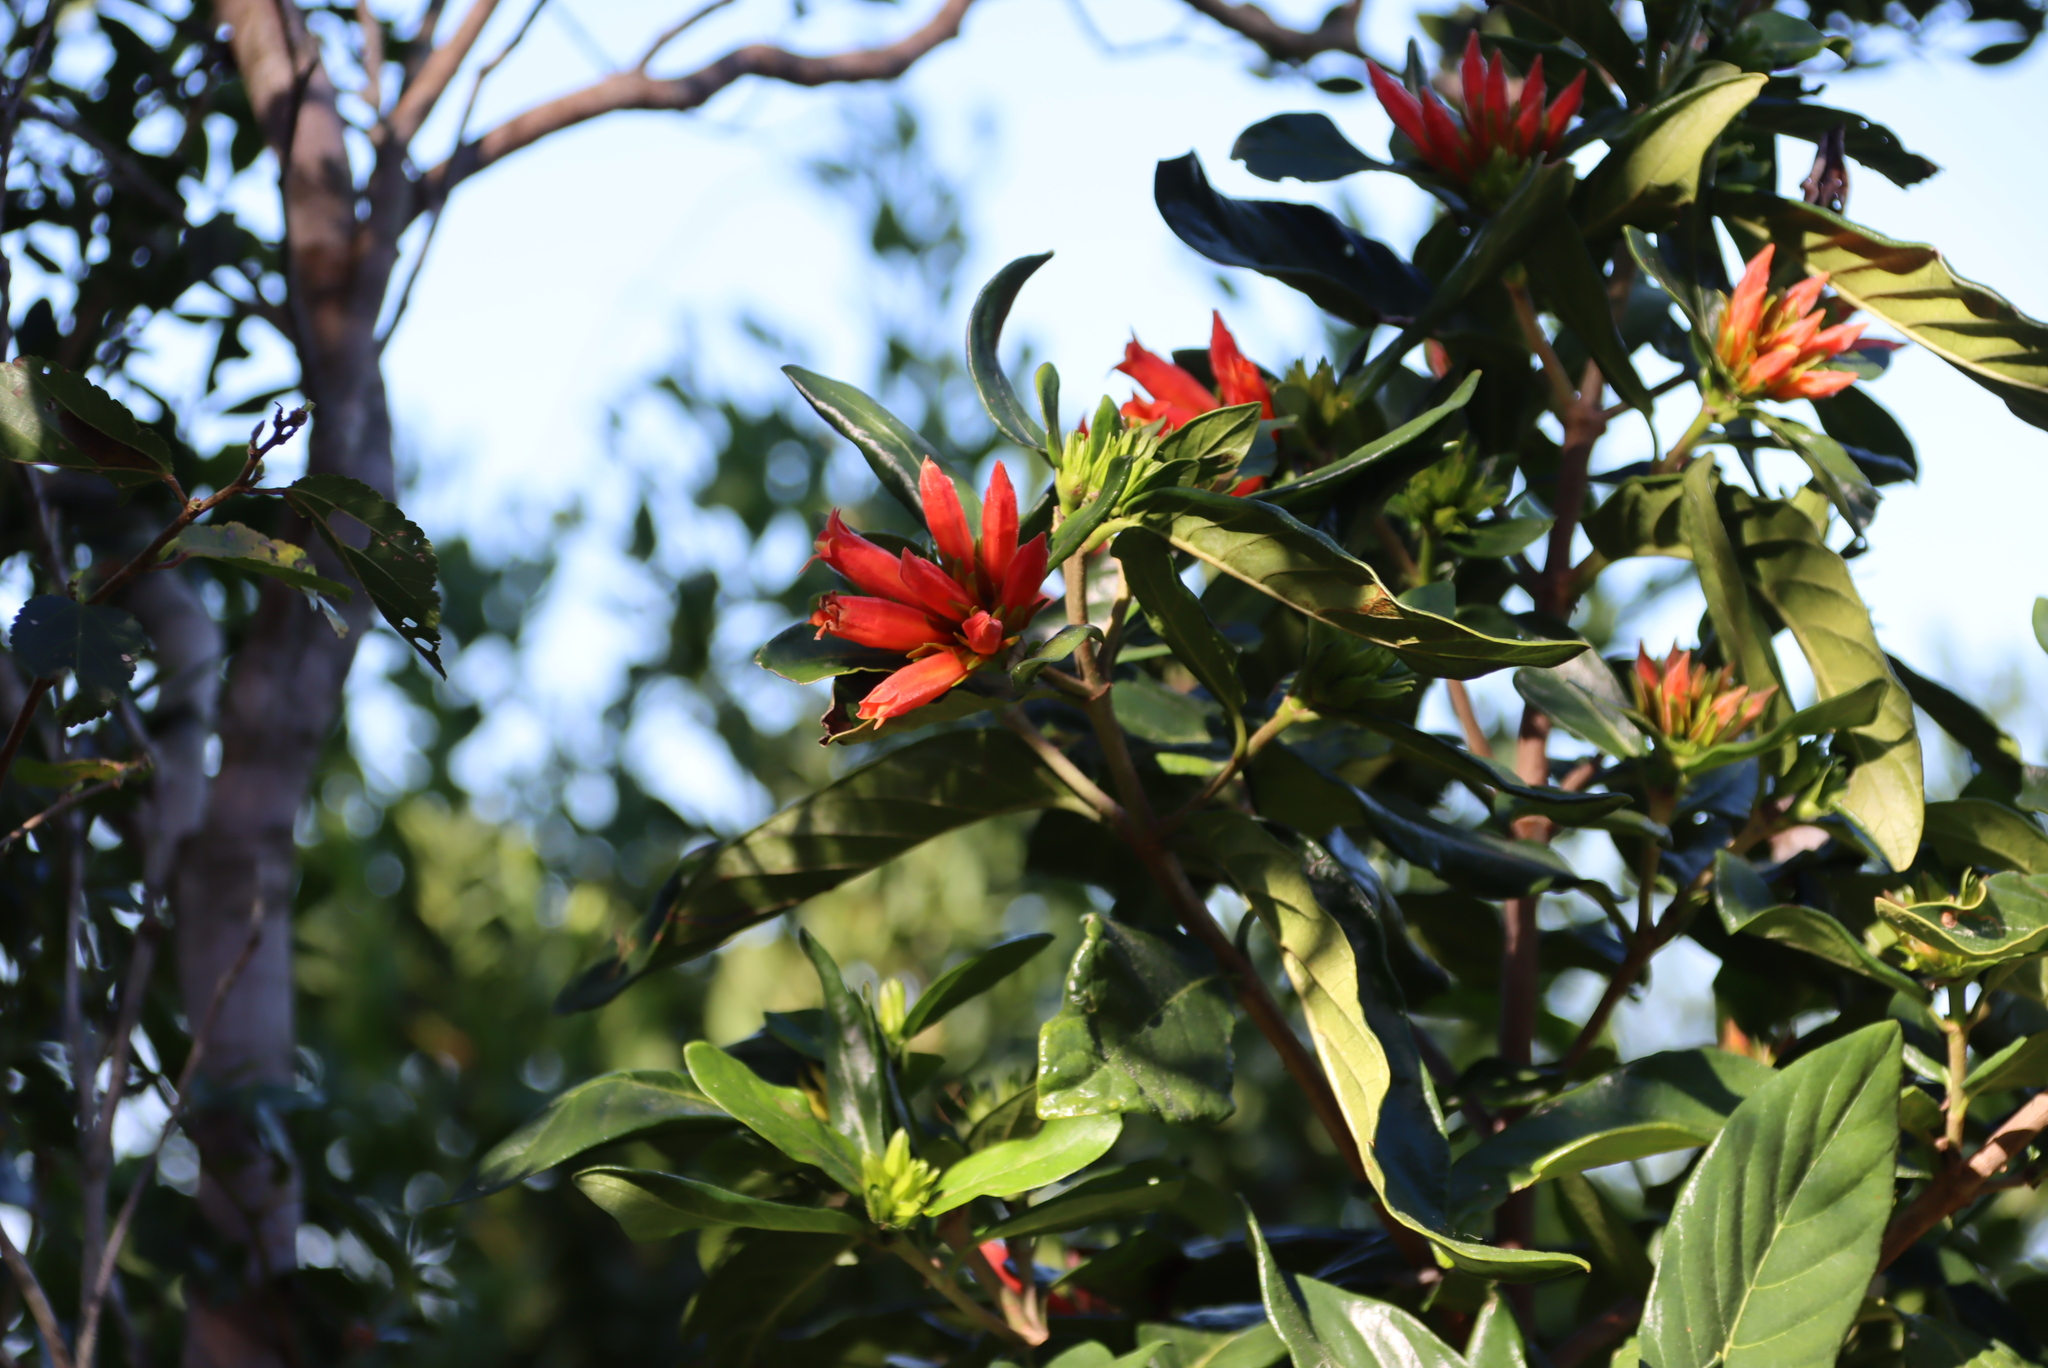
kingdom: Plantae
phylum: Tracheophyta
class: Magnoliopsida
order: Gentianales
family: Rubiaceae
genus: Burchellia
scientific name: Burchellia bubalina
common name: Wild pomegranate
